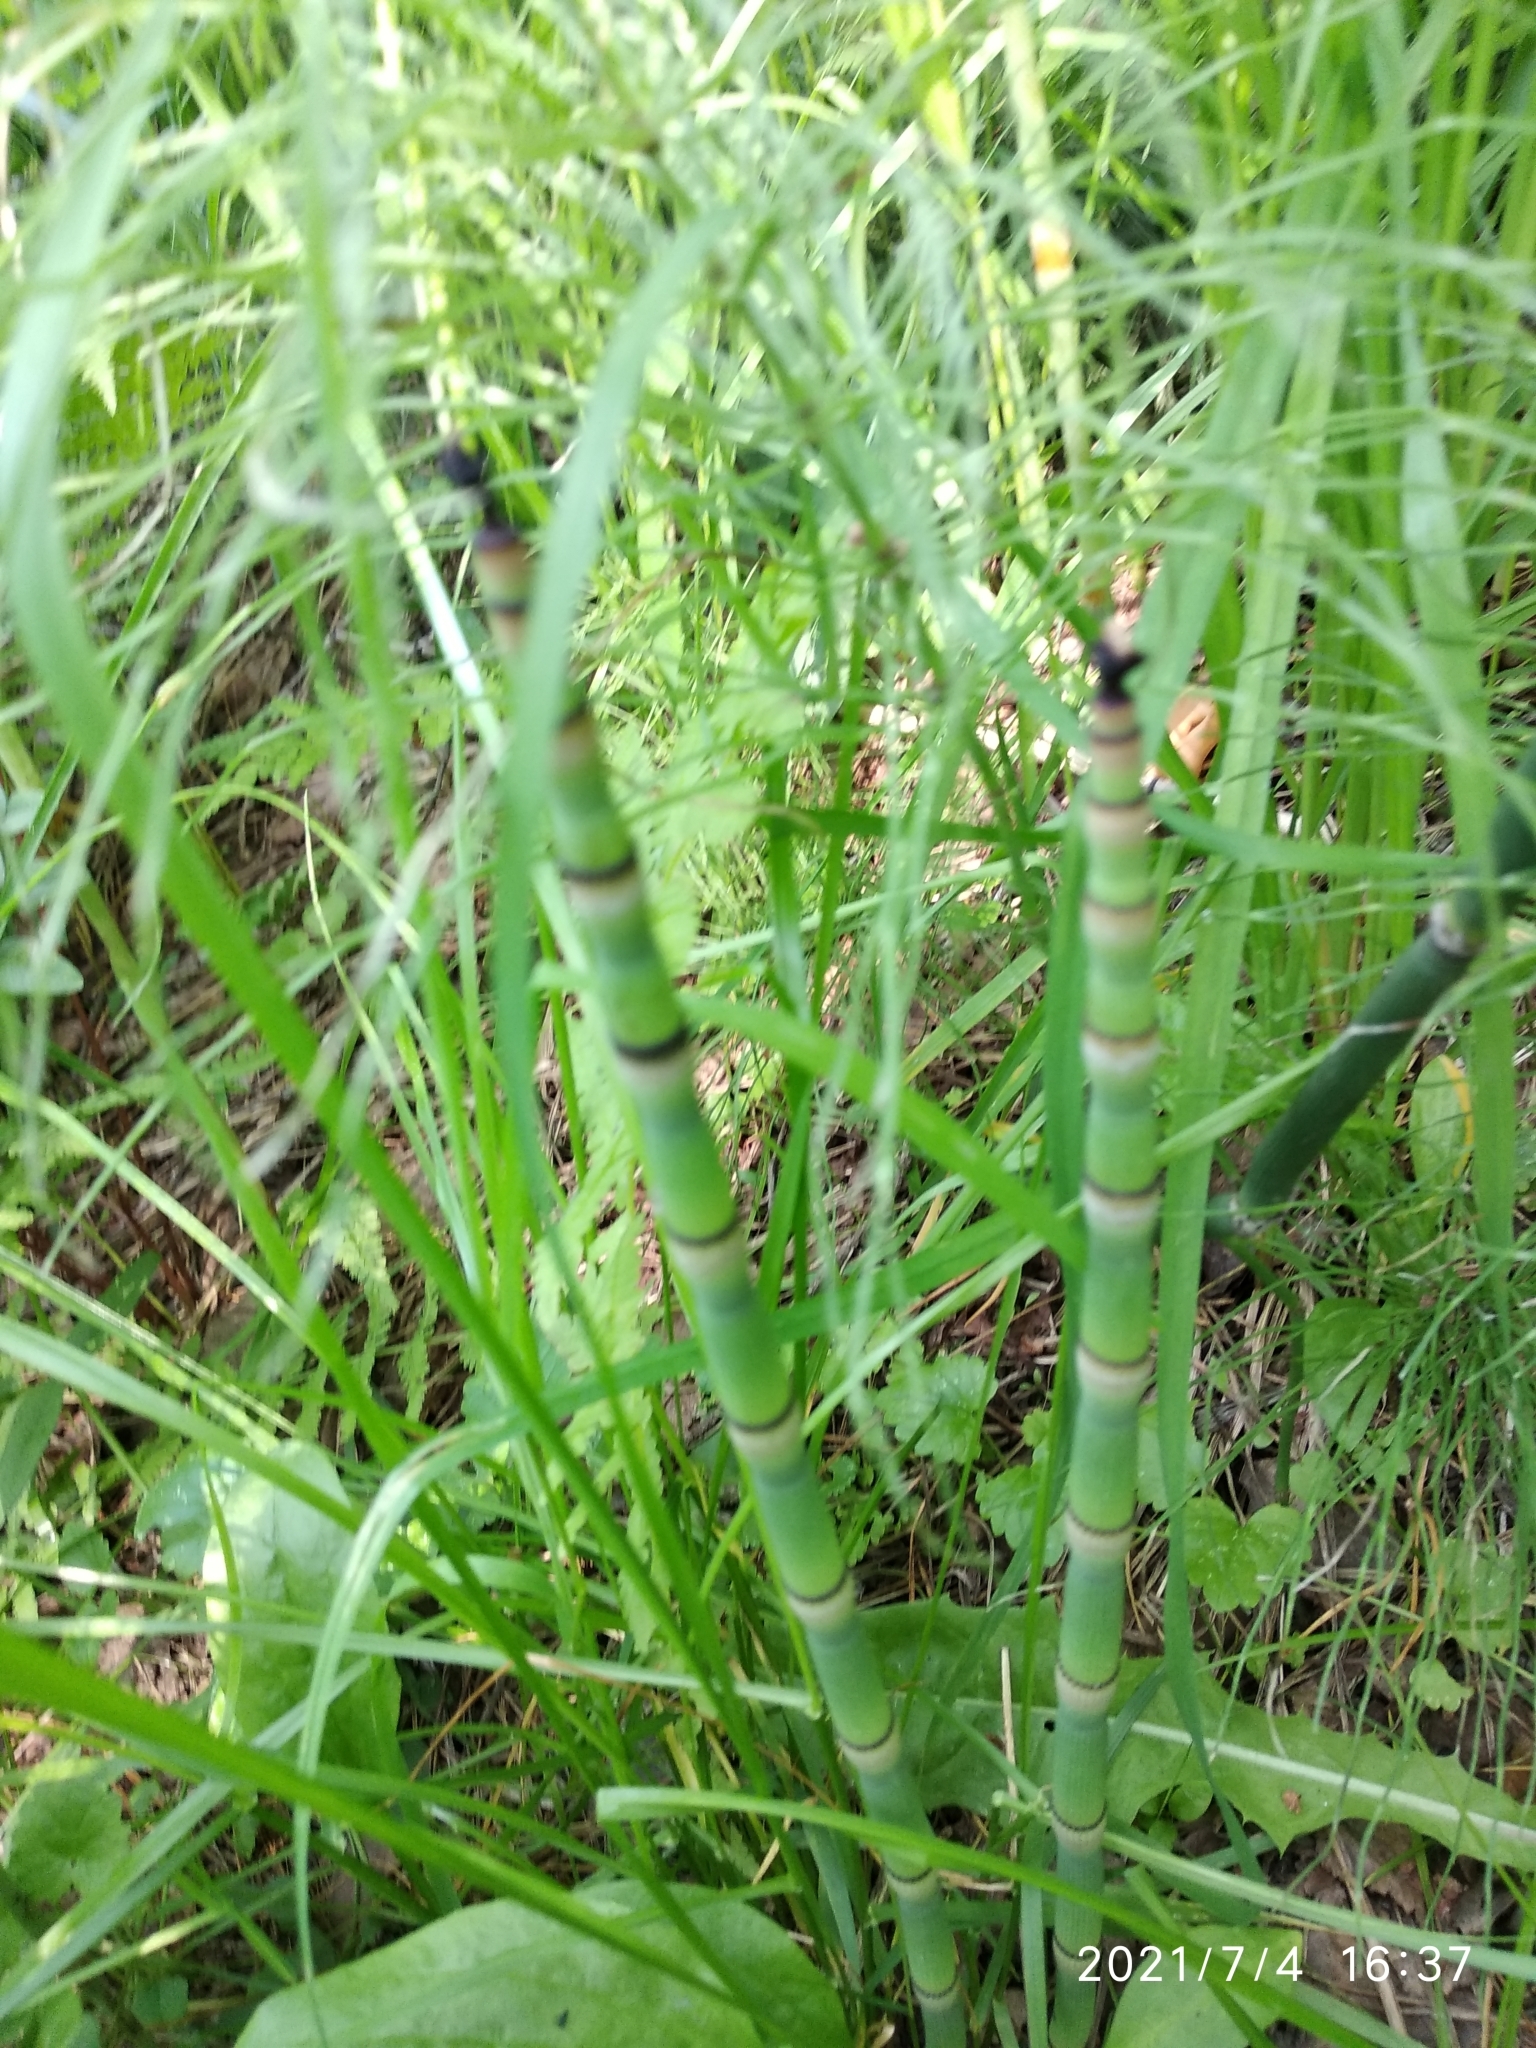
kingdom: Plantae
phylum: Tracheophyta
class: Polypodiopsida
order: Equisetales
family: Equisetaceae
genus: Equisetum
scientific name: Equisetum hyemale
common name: Rough horsetail
